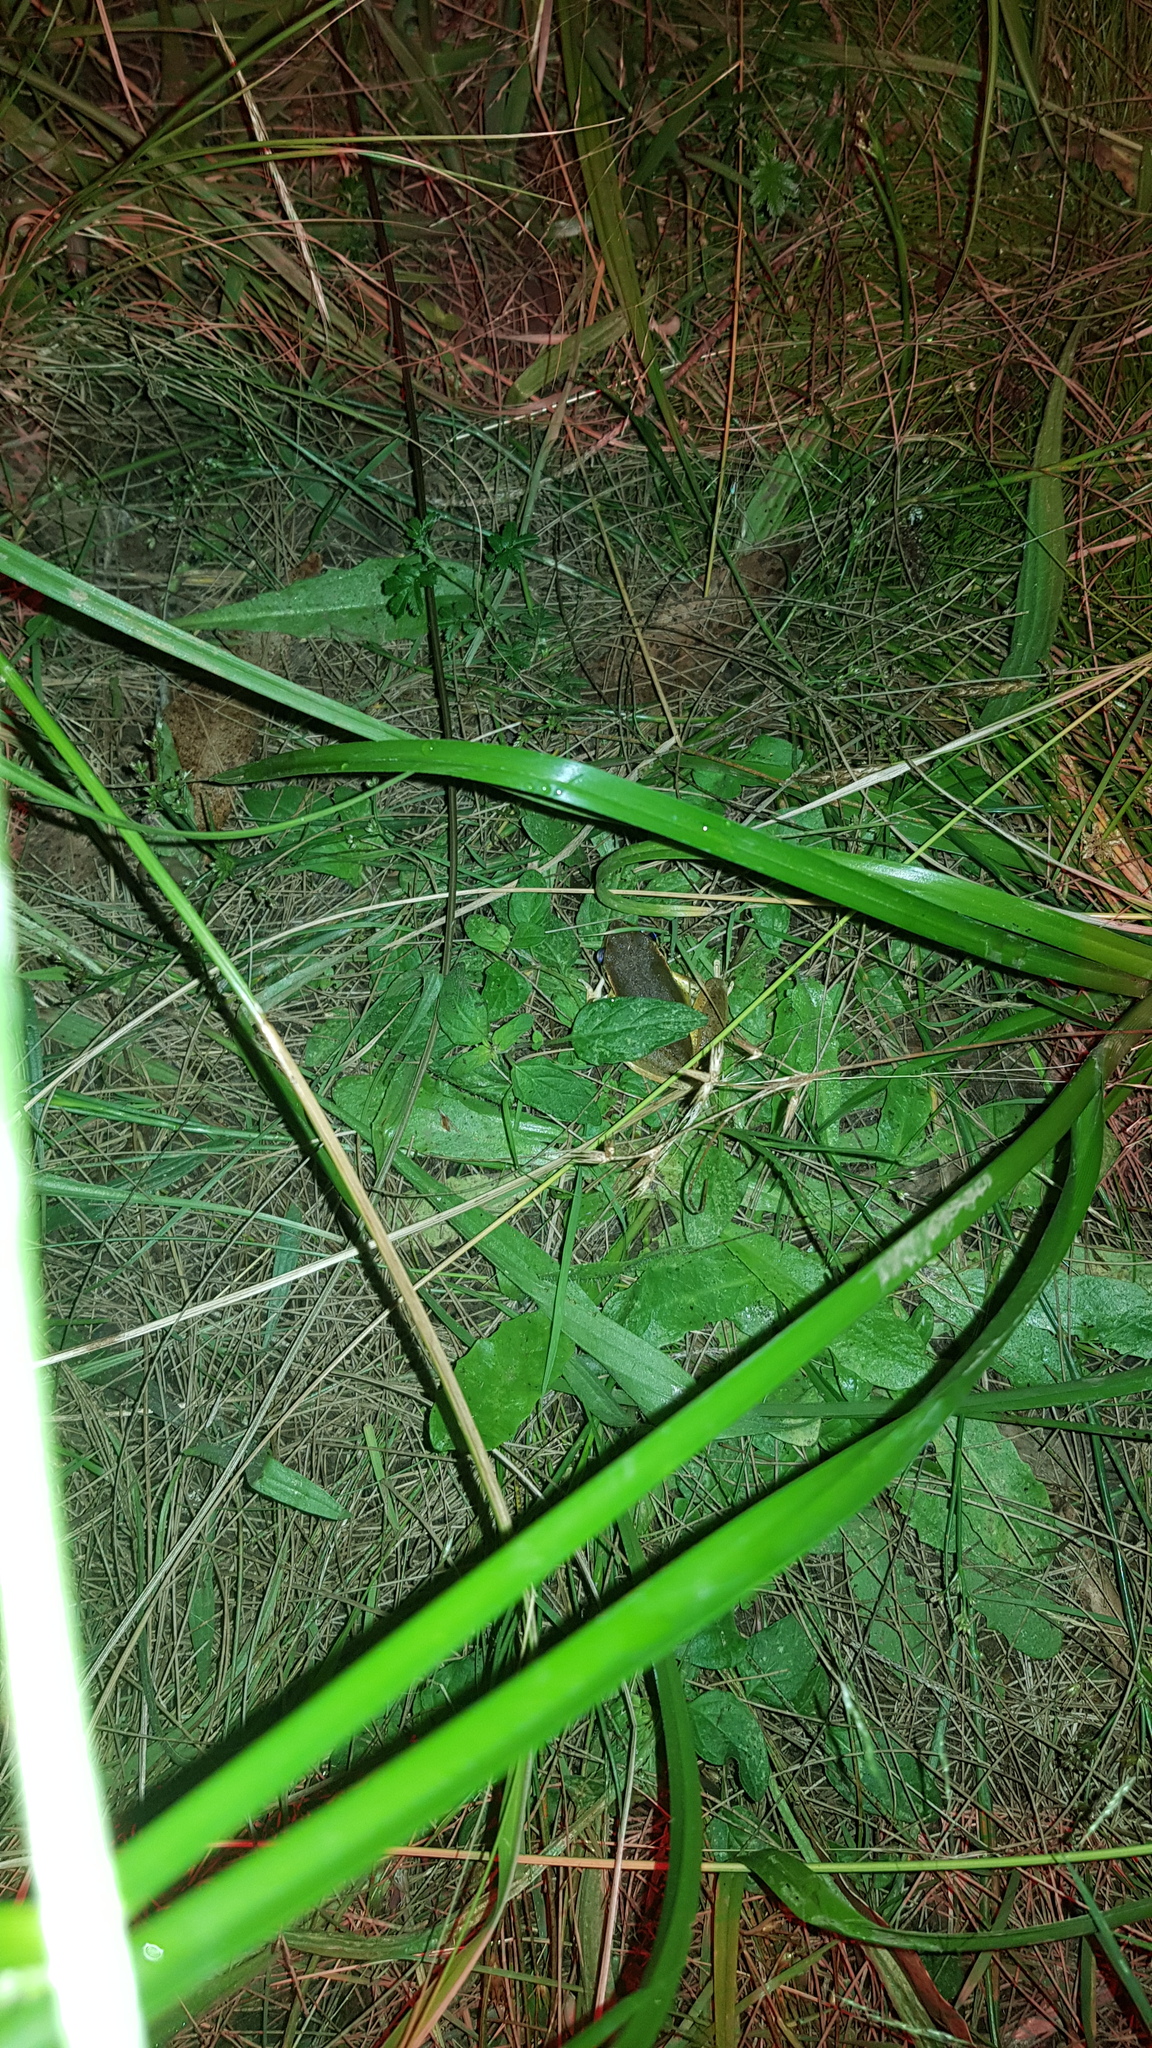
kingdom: Animalia
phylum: Chordata
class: Amphibia
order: Anura
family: Pelodryadidae
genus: Ranoidea
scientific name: Ranoidea lesueurii
